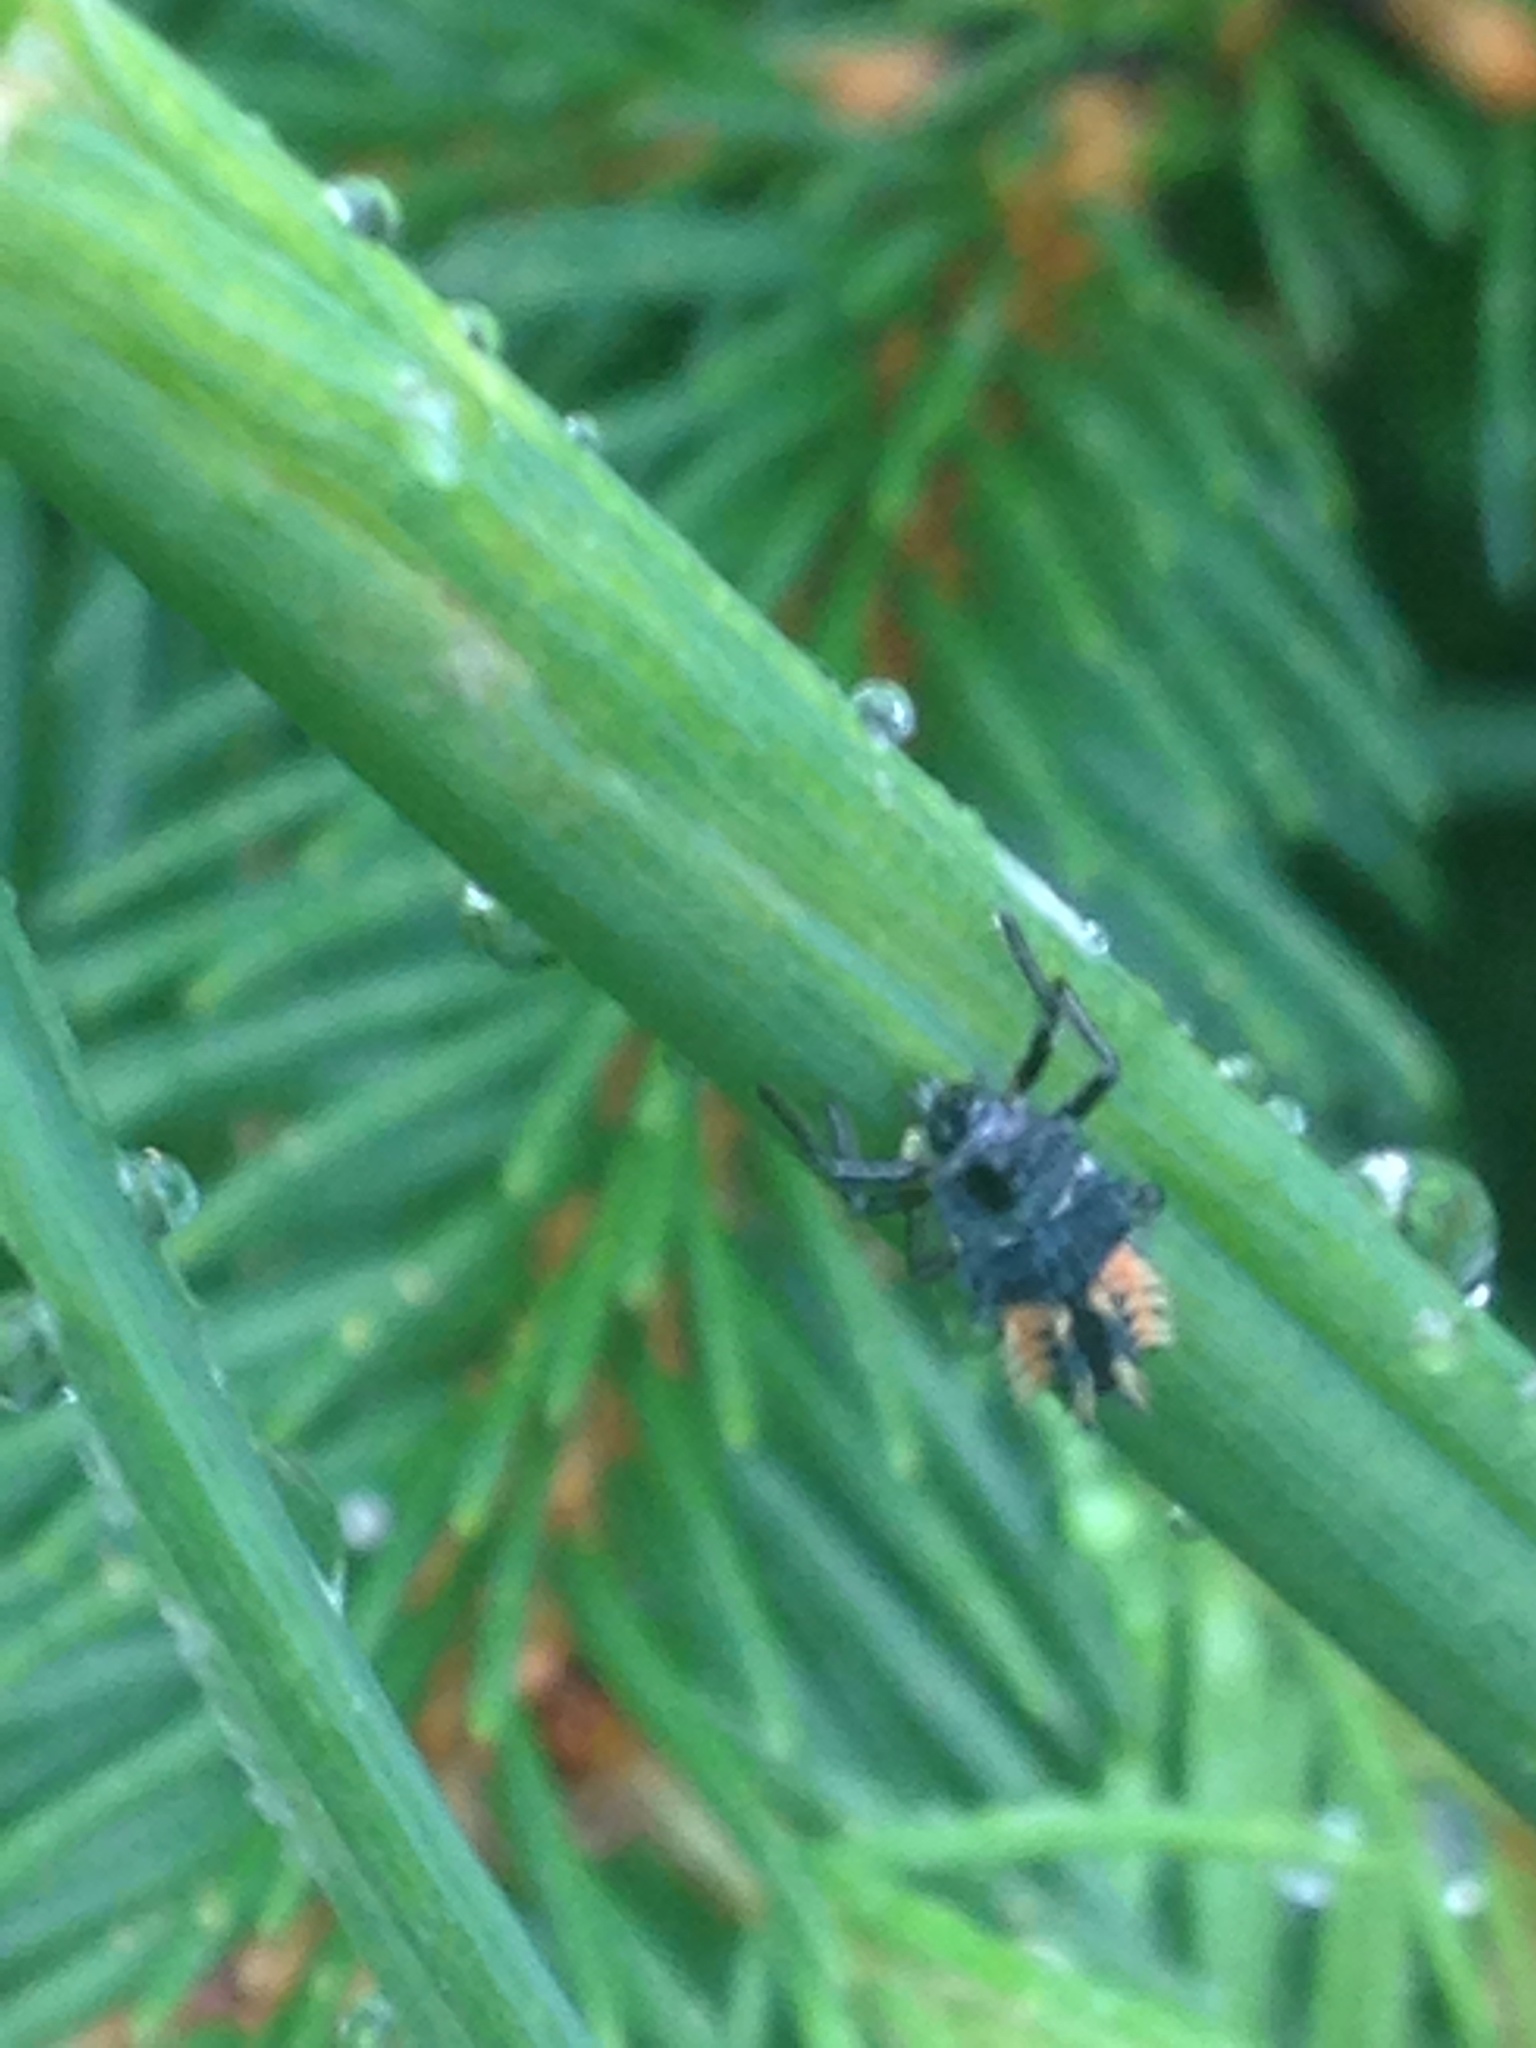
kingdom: Animalia
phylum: Arthropoda
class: Insecta
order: Coleoptera
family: Coccinellidae
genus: Harmonia
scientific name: Harmonia axyridis
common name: Harlequin ladybird
